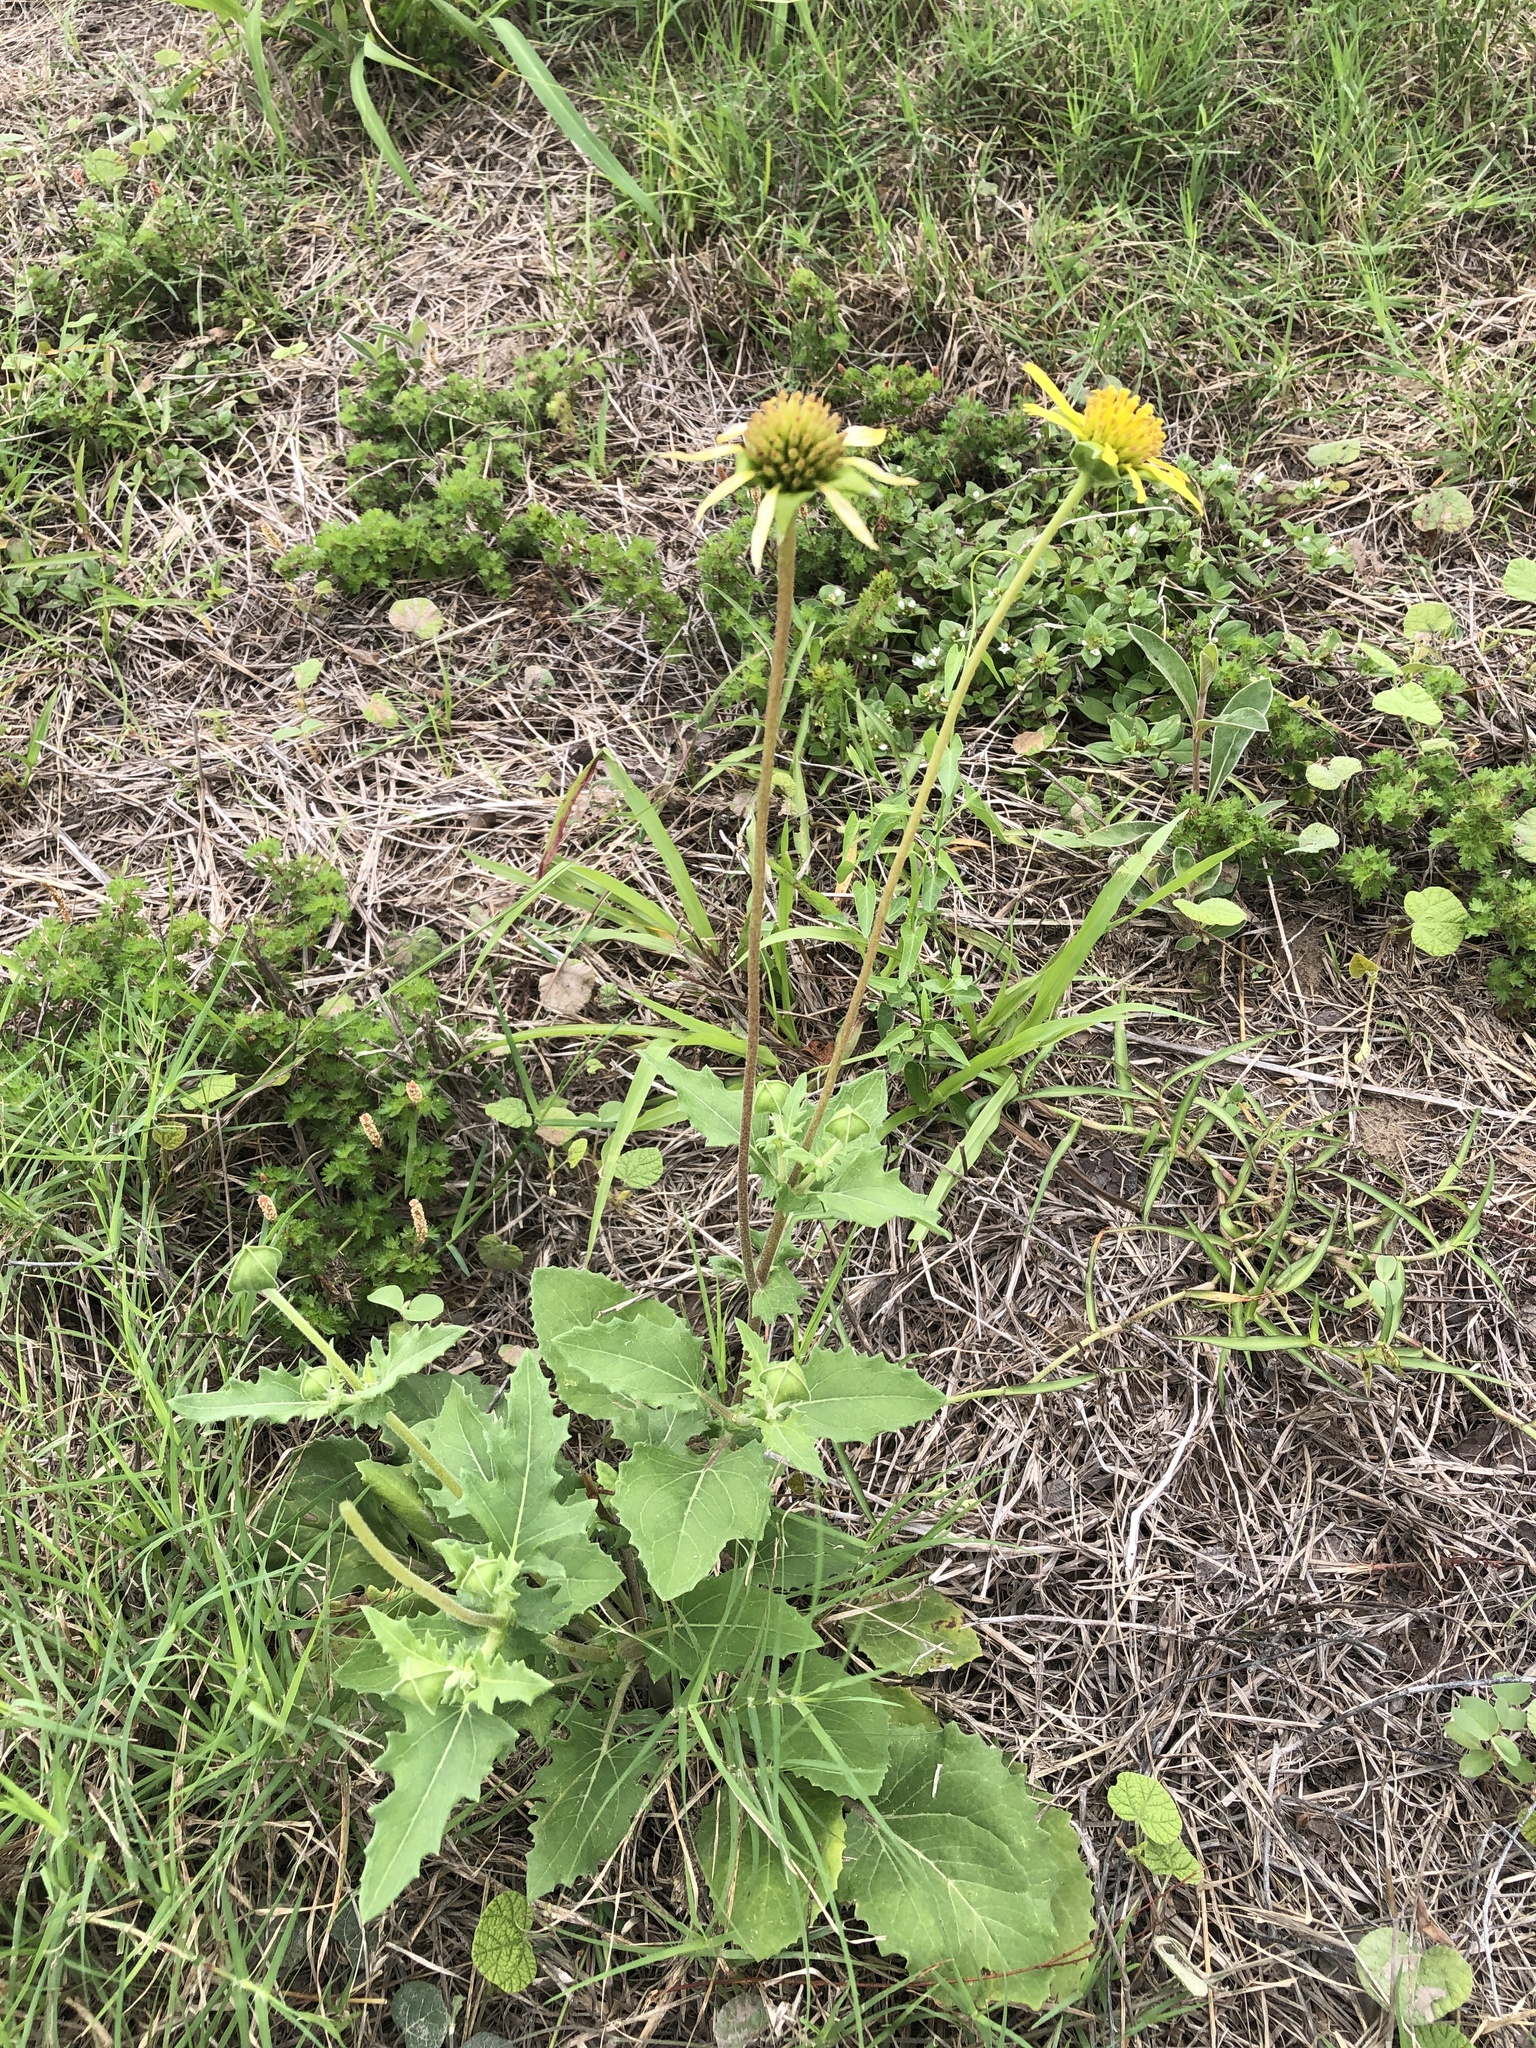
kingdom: Plantae
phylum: Tracheophyta
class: Magnoliopsida
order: Asterales
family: Asteraceae
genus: Tetragonotheca
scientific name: Tetragonotheca repanda
